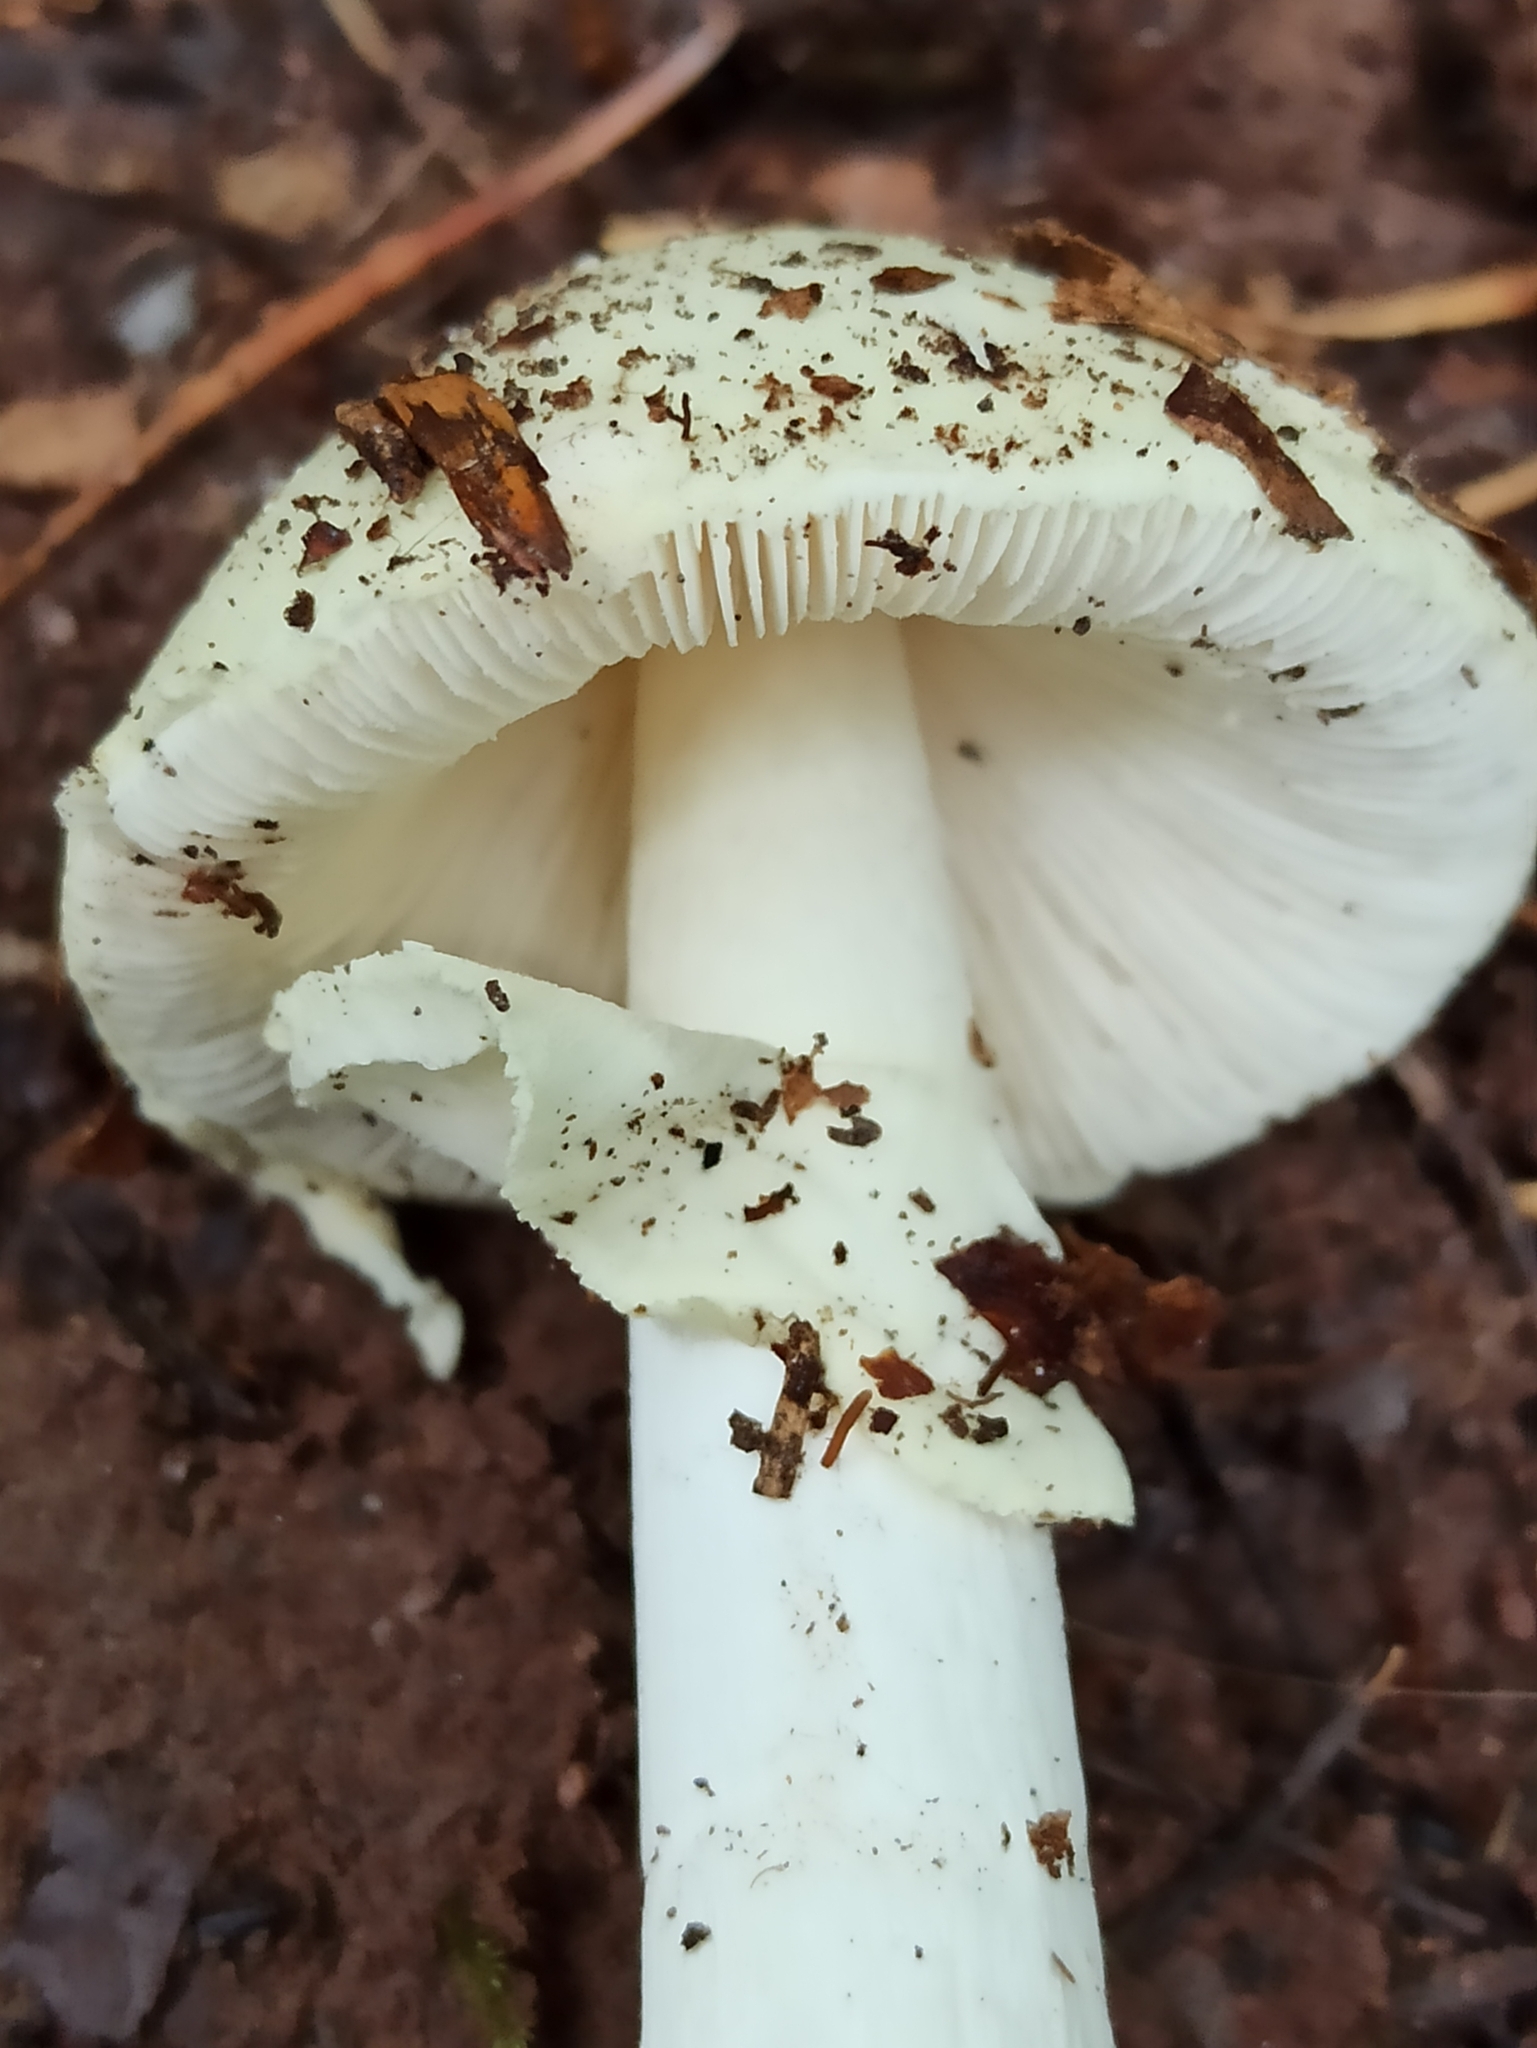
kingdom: Fungi
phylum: Basidiomycota
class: Agaricomycetes
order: Agaricales
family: Amanitaceae
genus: Amanita
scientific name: Amanita citrina
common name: False death-cap
